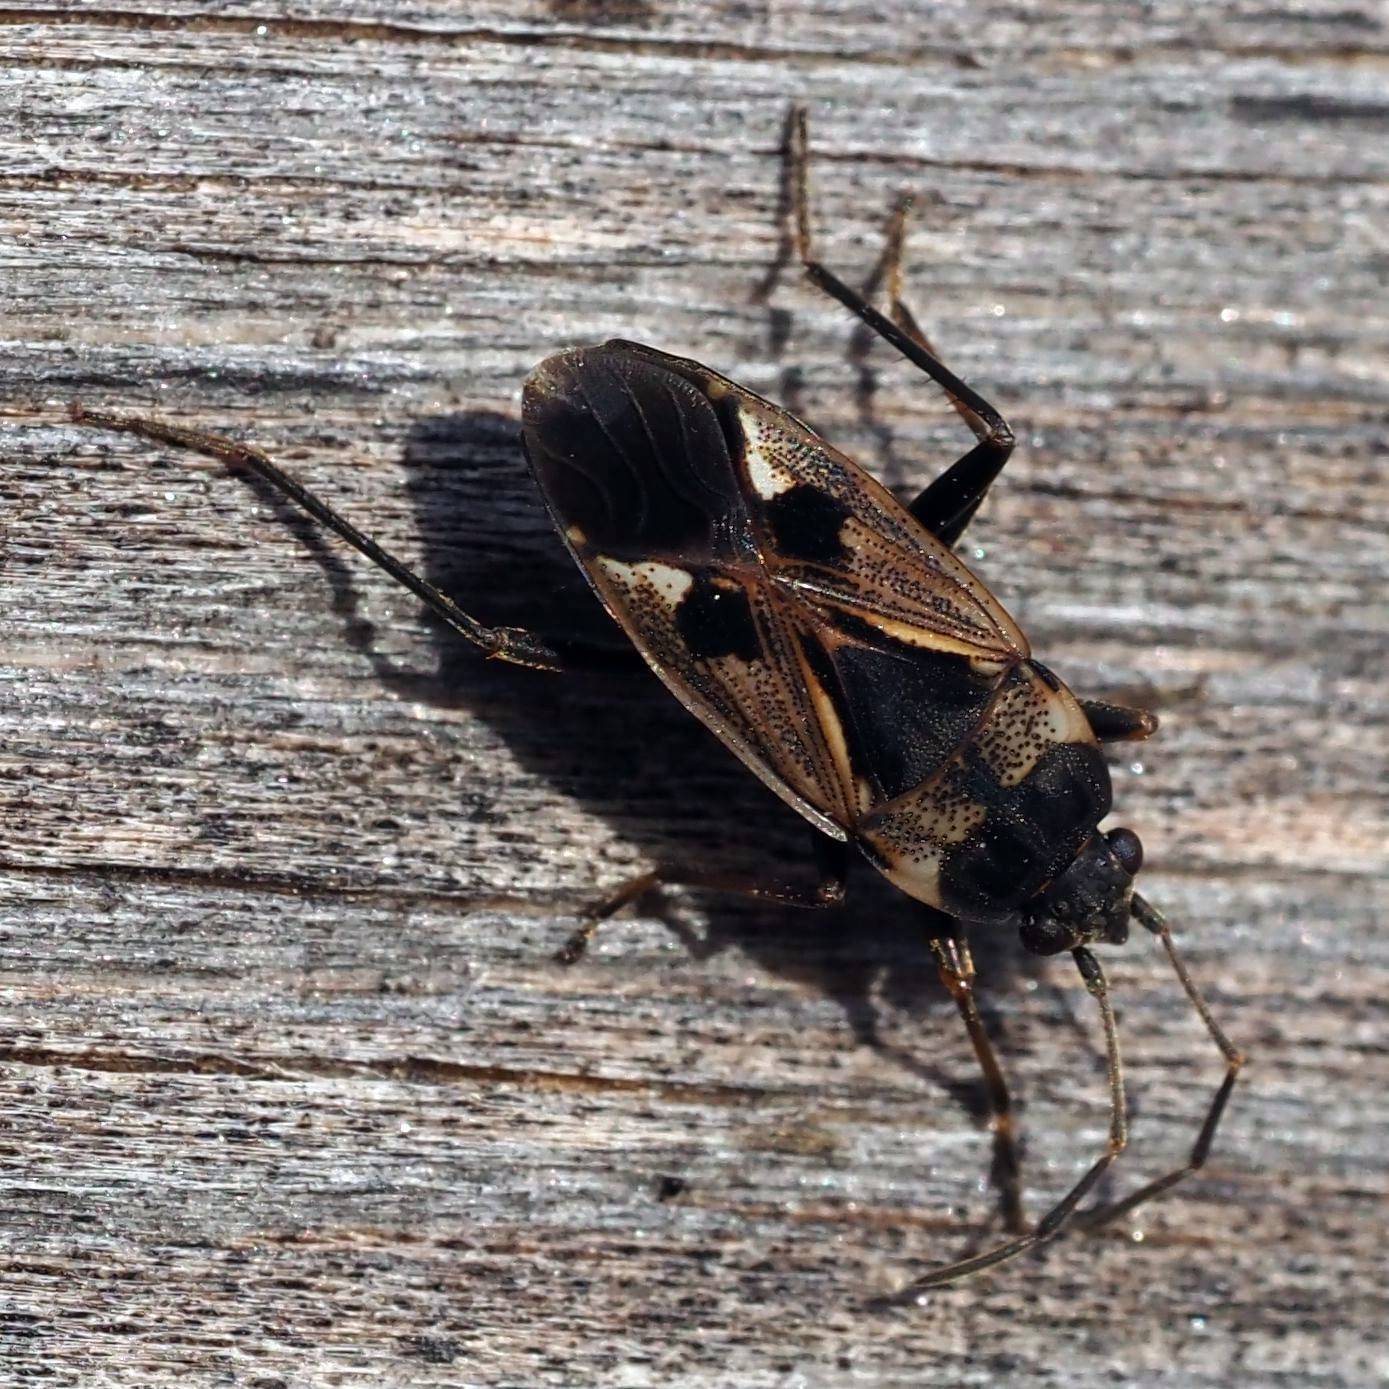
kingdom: Animalia
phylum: Arthropoda
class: Insecta
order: Hemiptera
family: Rhyparochromidae
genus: Rhyparochromus
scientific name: Rhyparochromus vulgaris
